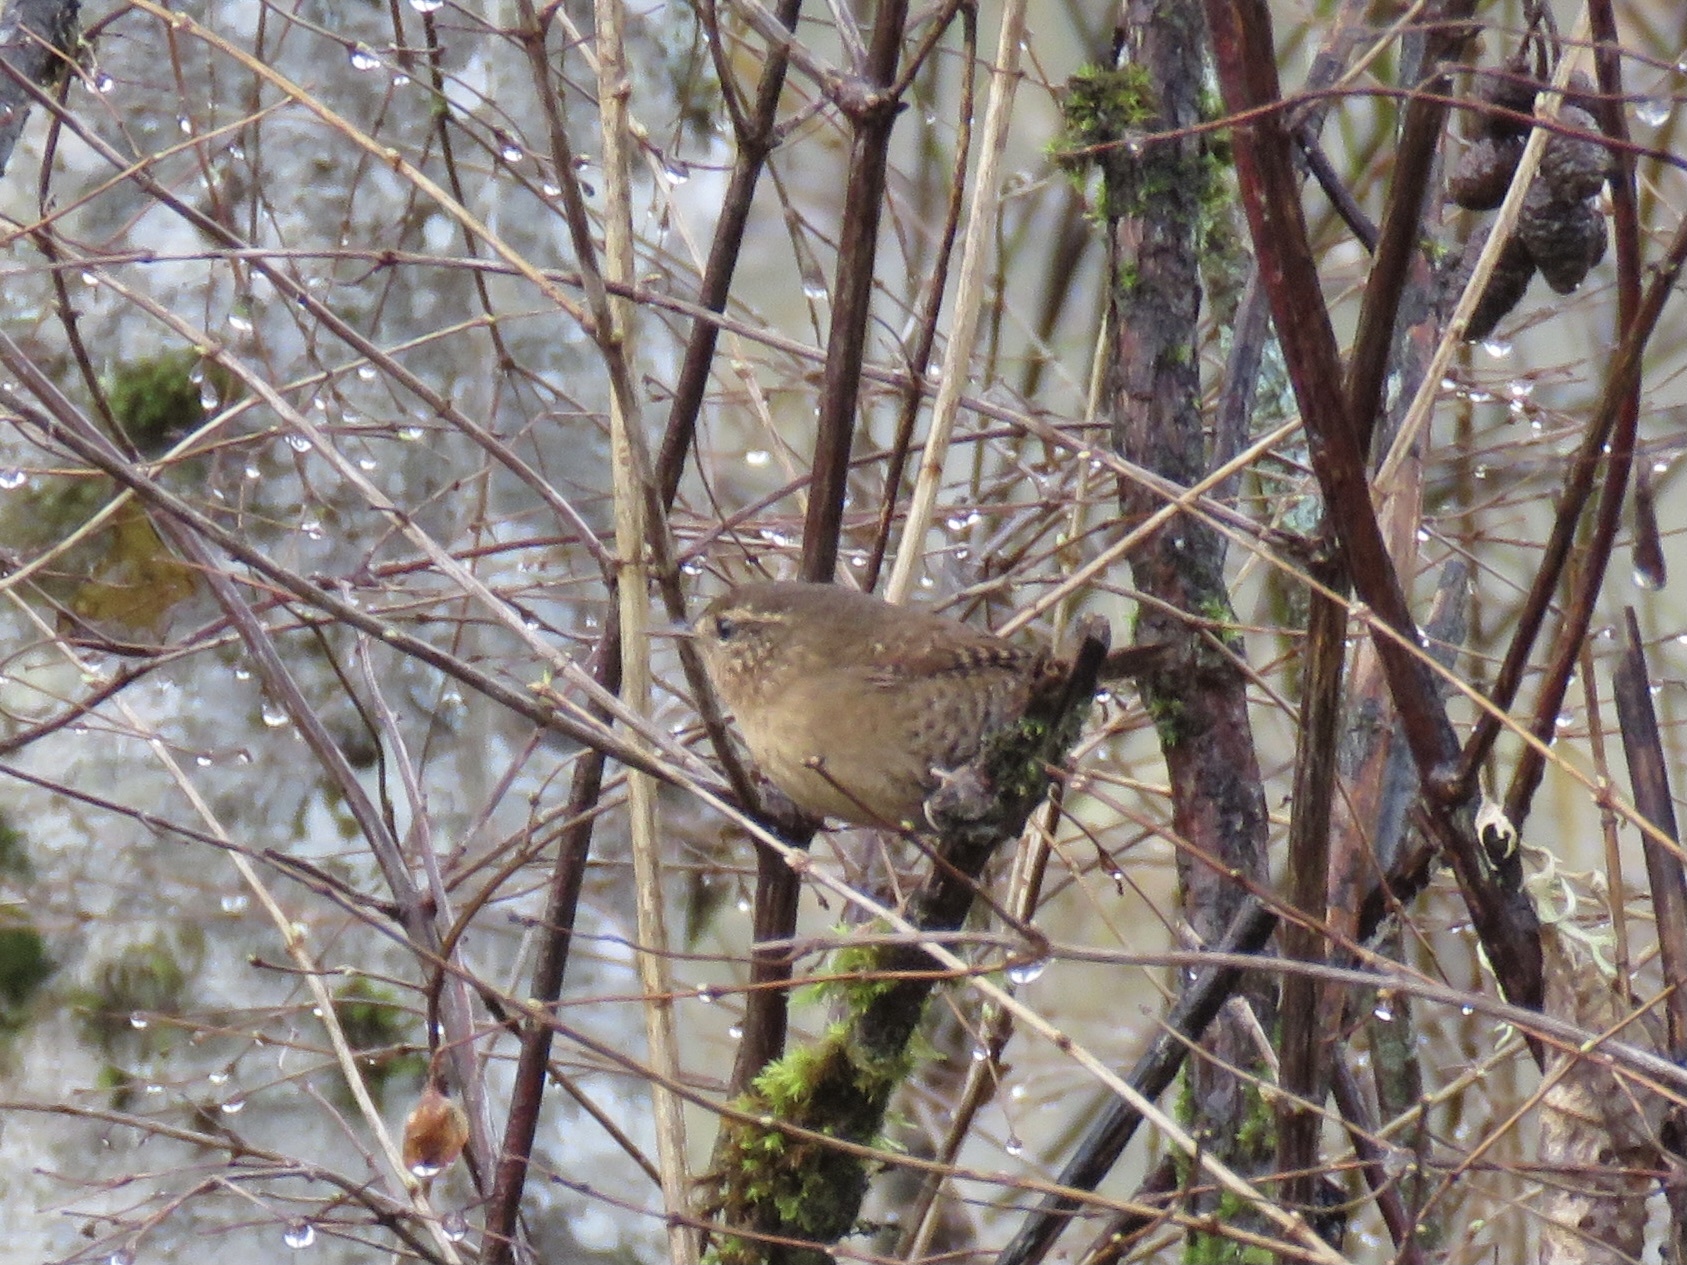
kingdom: Animalia
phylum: Chordata
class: Aves
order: Passeriformes
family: Troglodytidae
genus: Troglodytes
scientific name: Troglodytes pacificus
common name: Pacific wren
